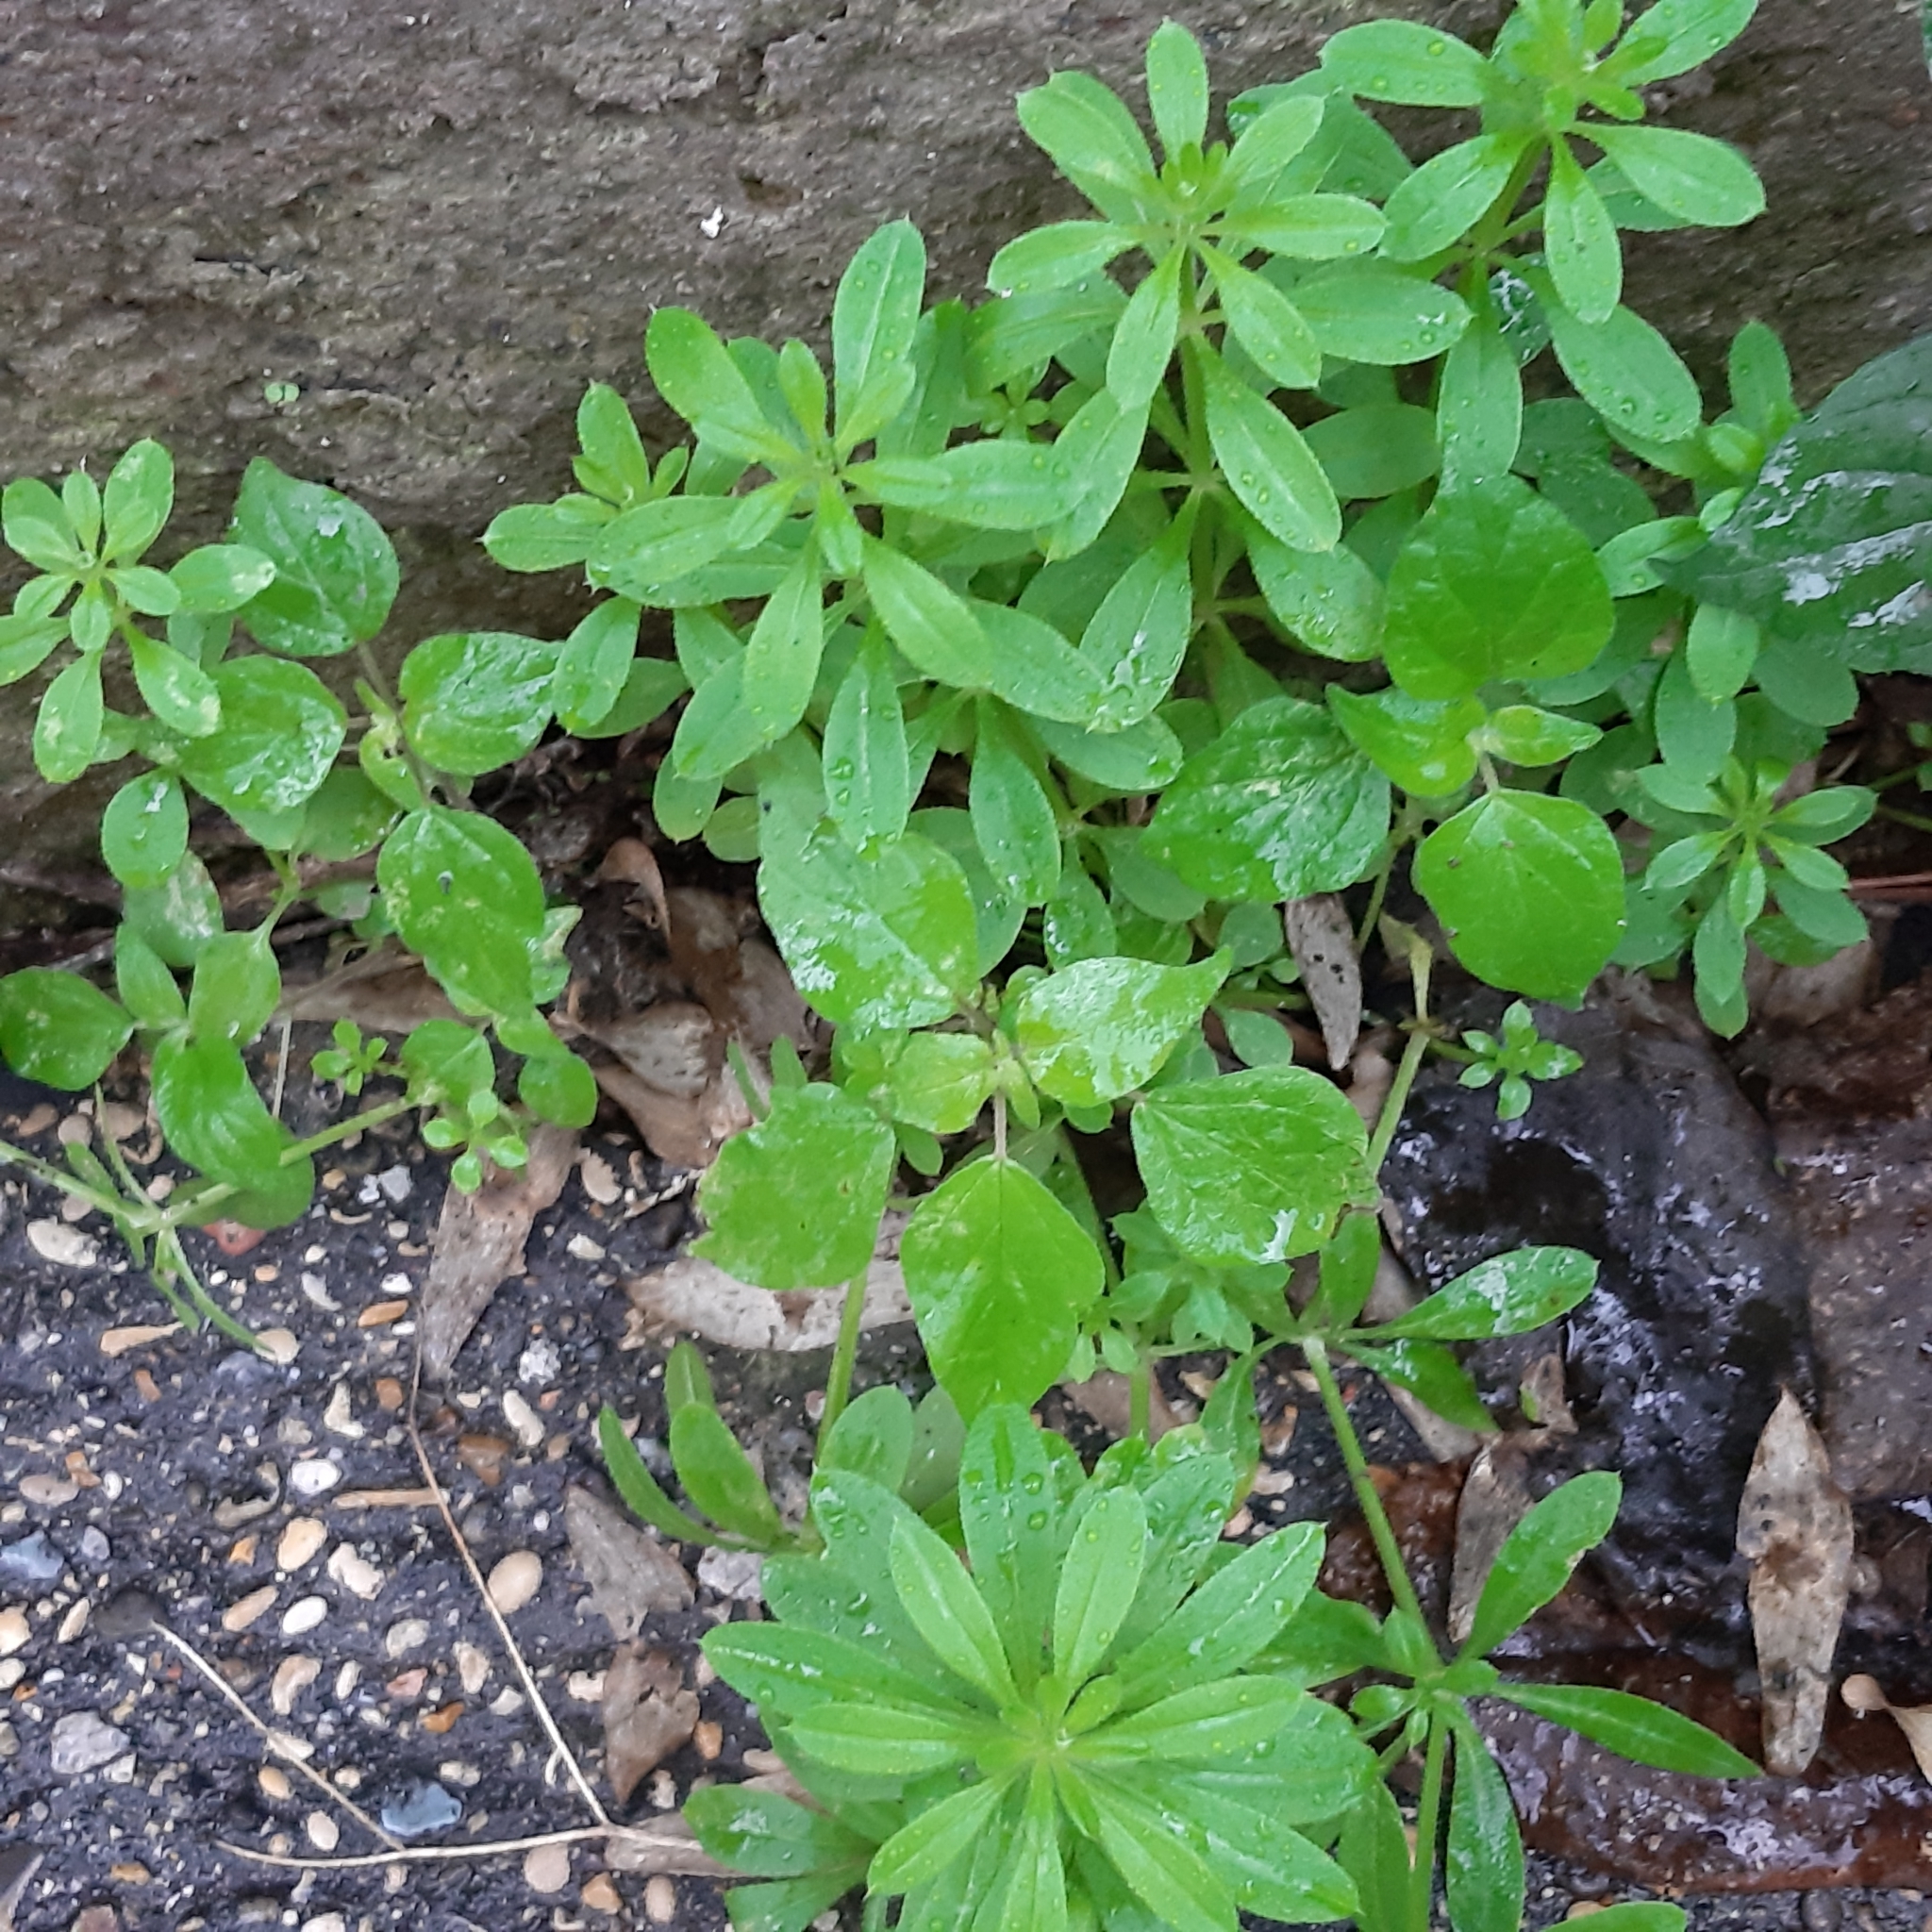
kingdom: Plantae
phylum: Tracheophyta
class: Magnoliopsida
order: Gentianales
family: Rubiaceae
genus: Galium
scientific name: Galium aparine
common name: Cleavers
